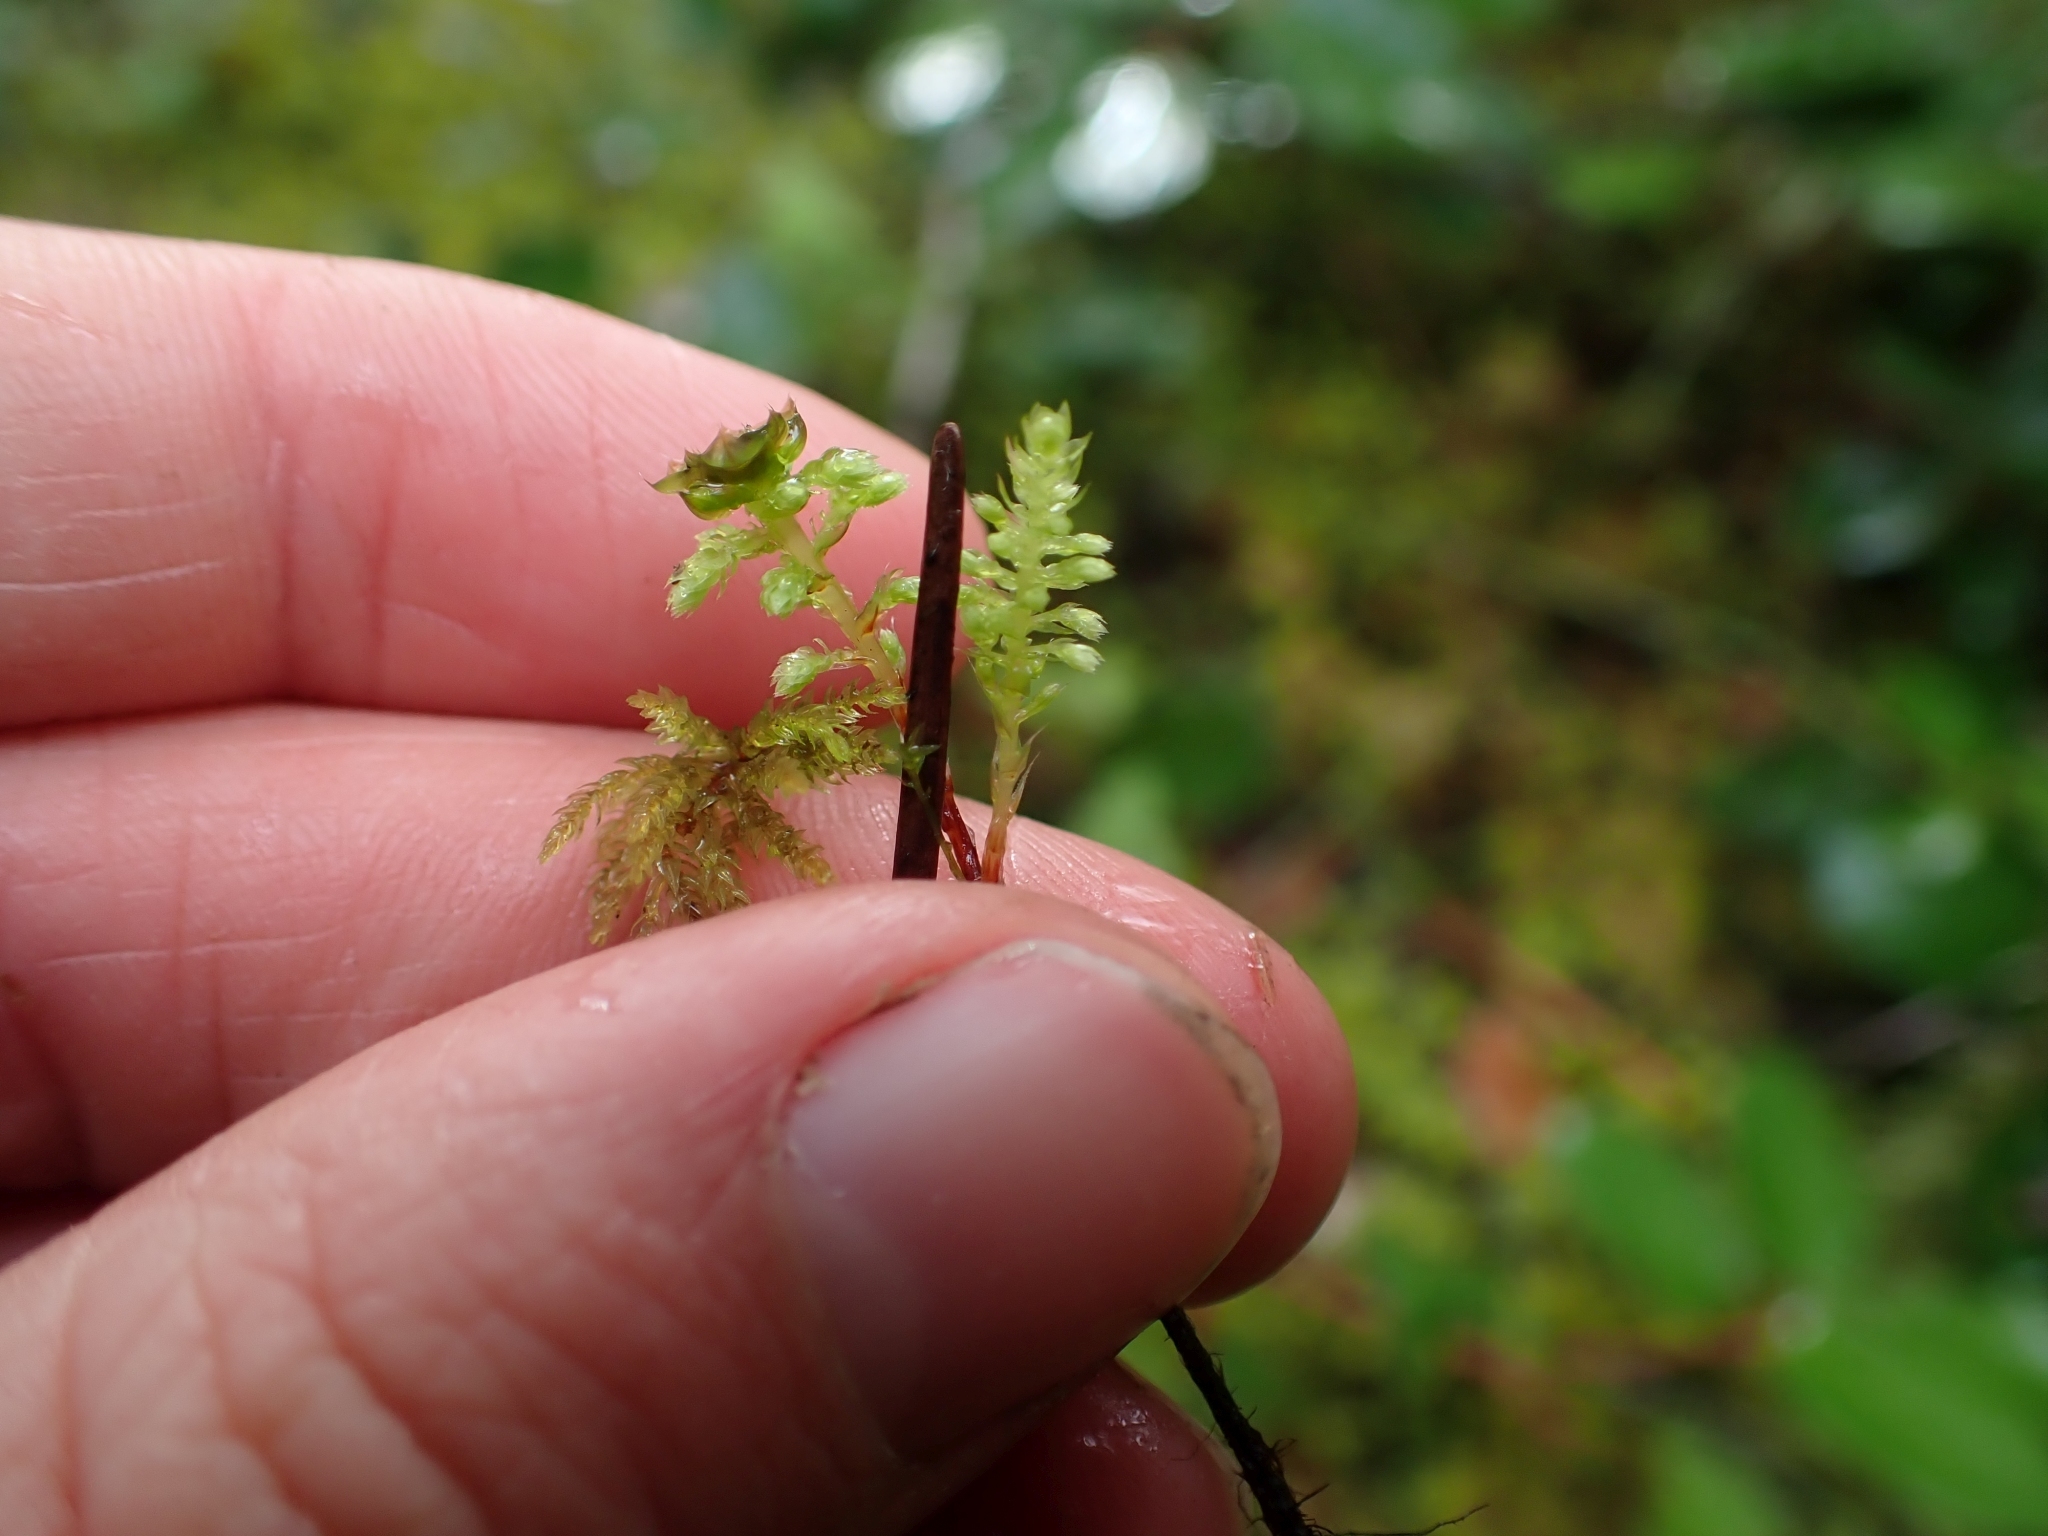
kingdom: Plantae
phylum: Bryophyta
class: Bryopsida
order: Bryales
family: Mniaceae
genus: Leucolepis
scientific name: Leucolepis acanthoneura
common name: Leucolepis umbrella moss
